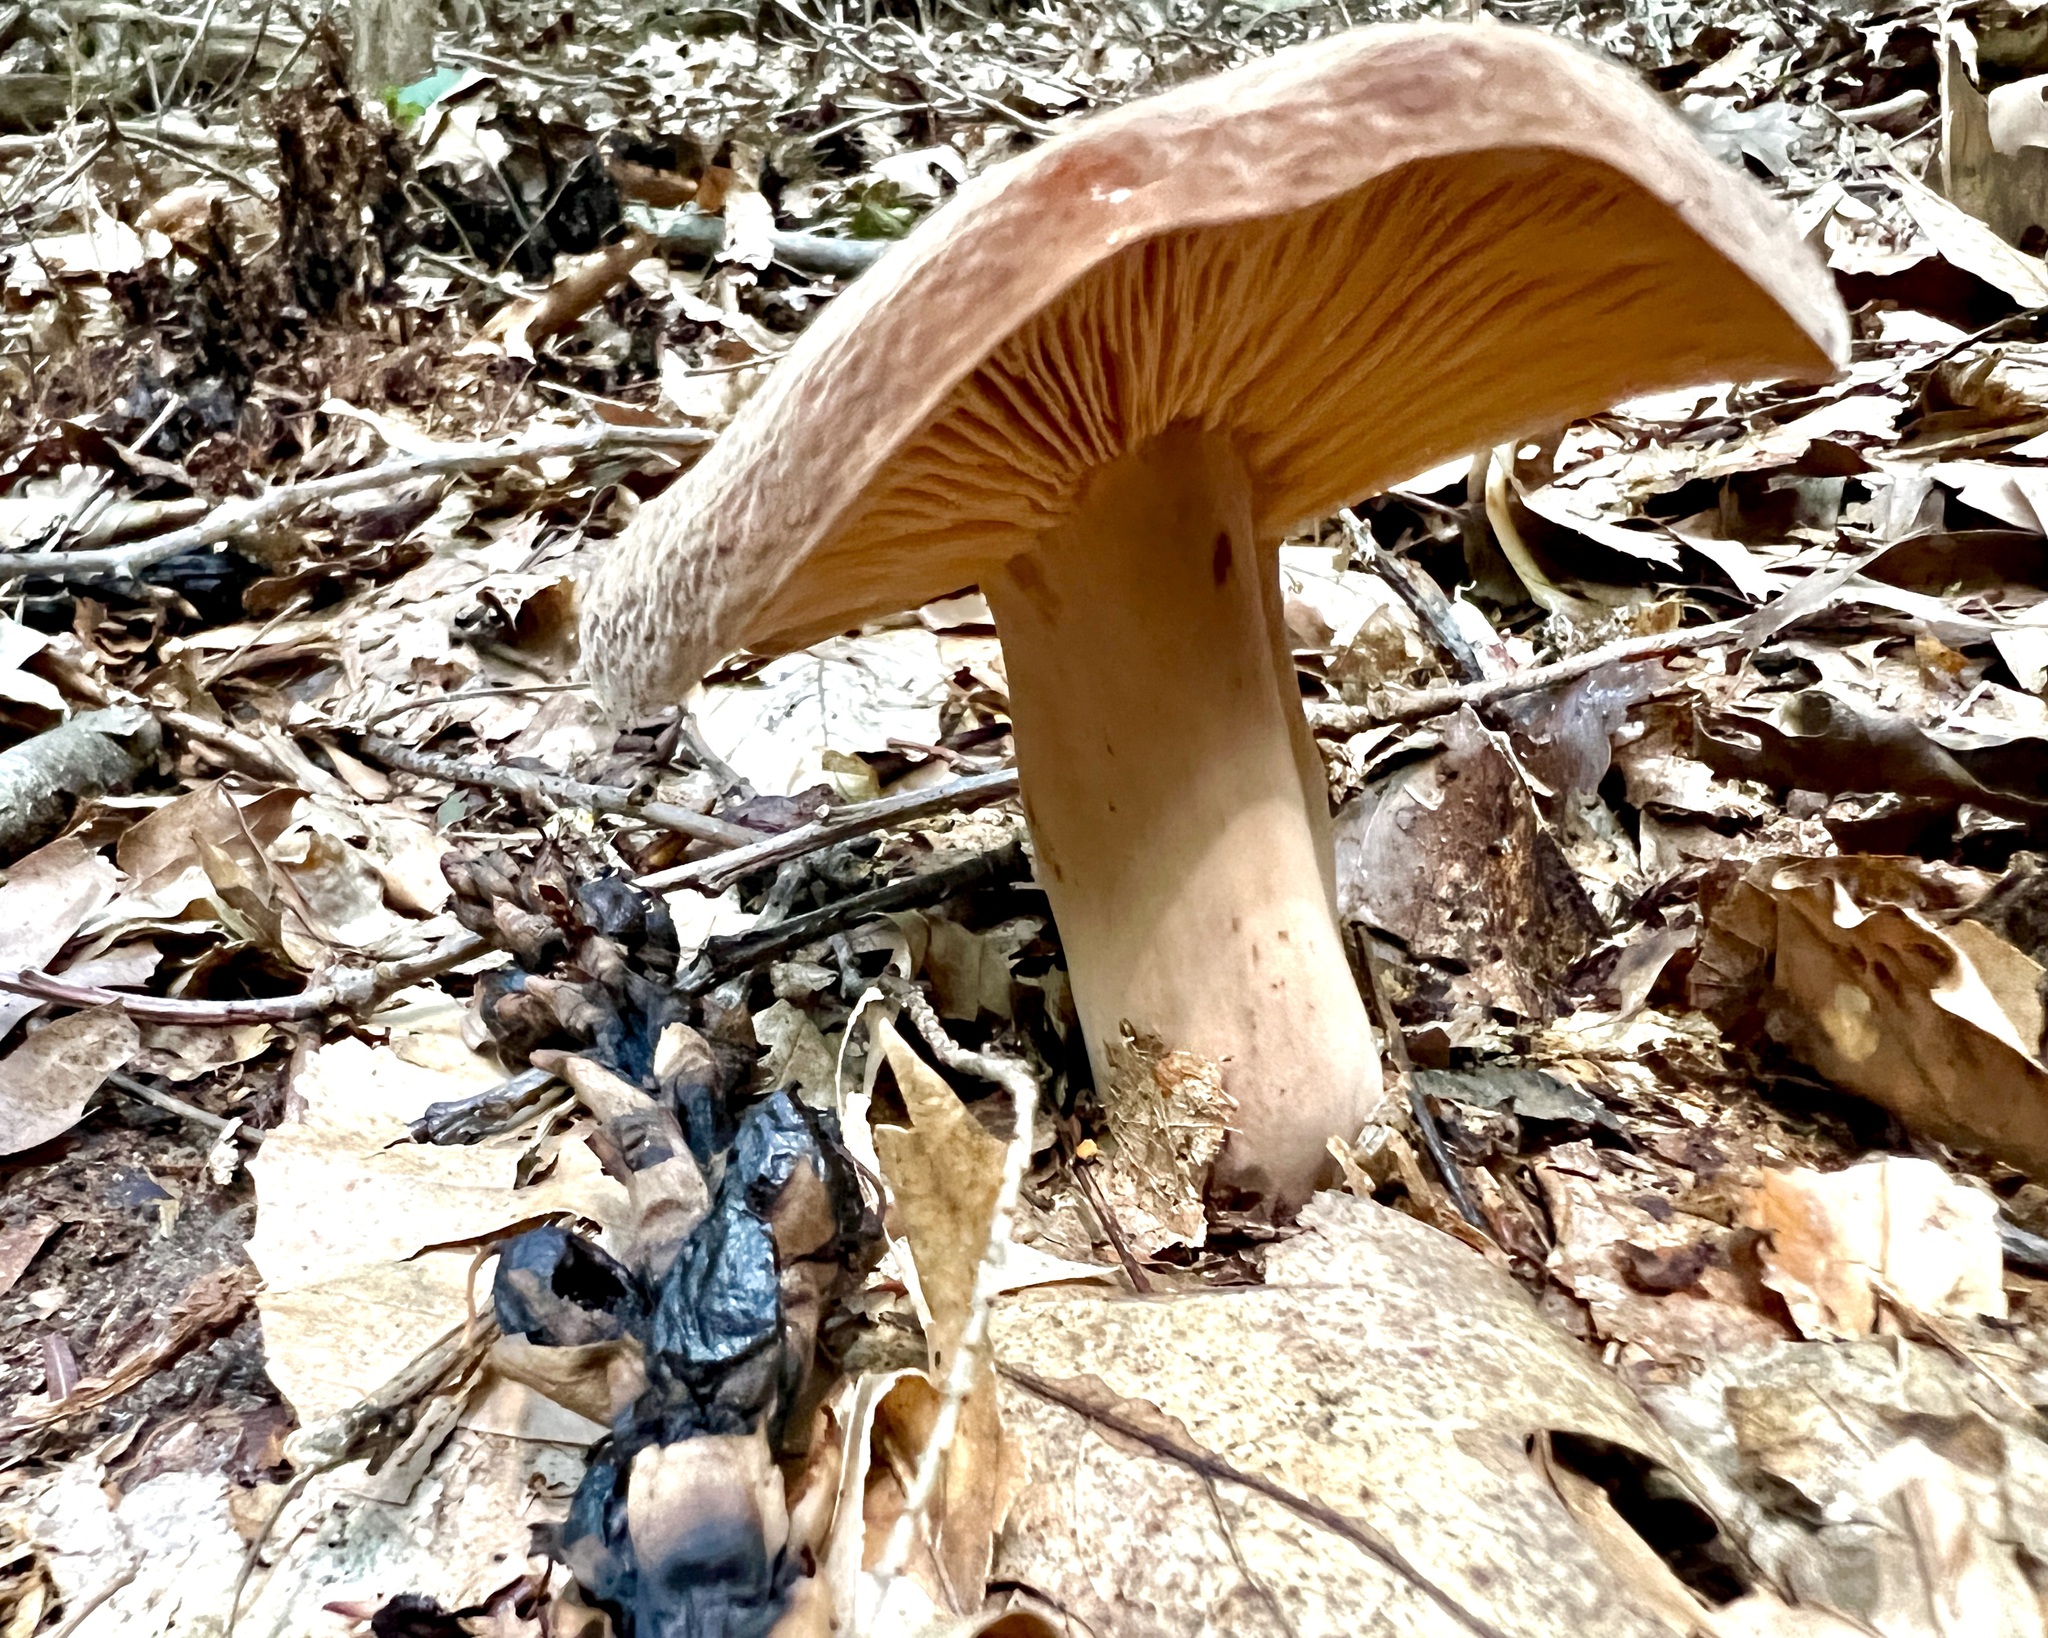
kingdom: Fungi
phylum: Basidiomycota
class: Agaricomycetes
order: Russulales
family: Russulaceae
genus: Lactarius
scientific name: Lactarius corrugis
